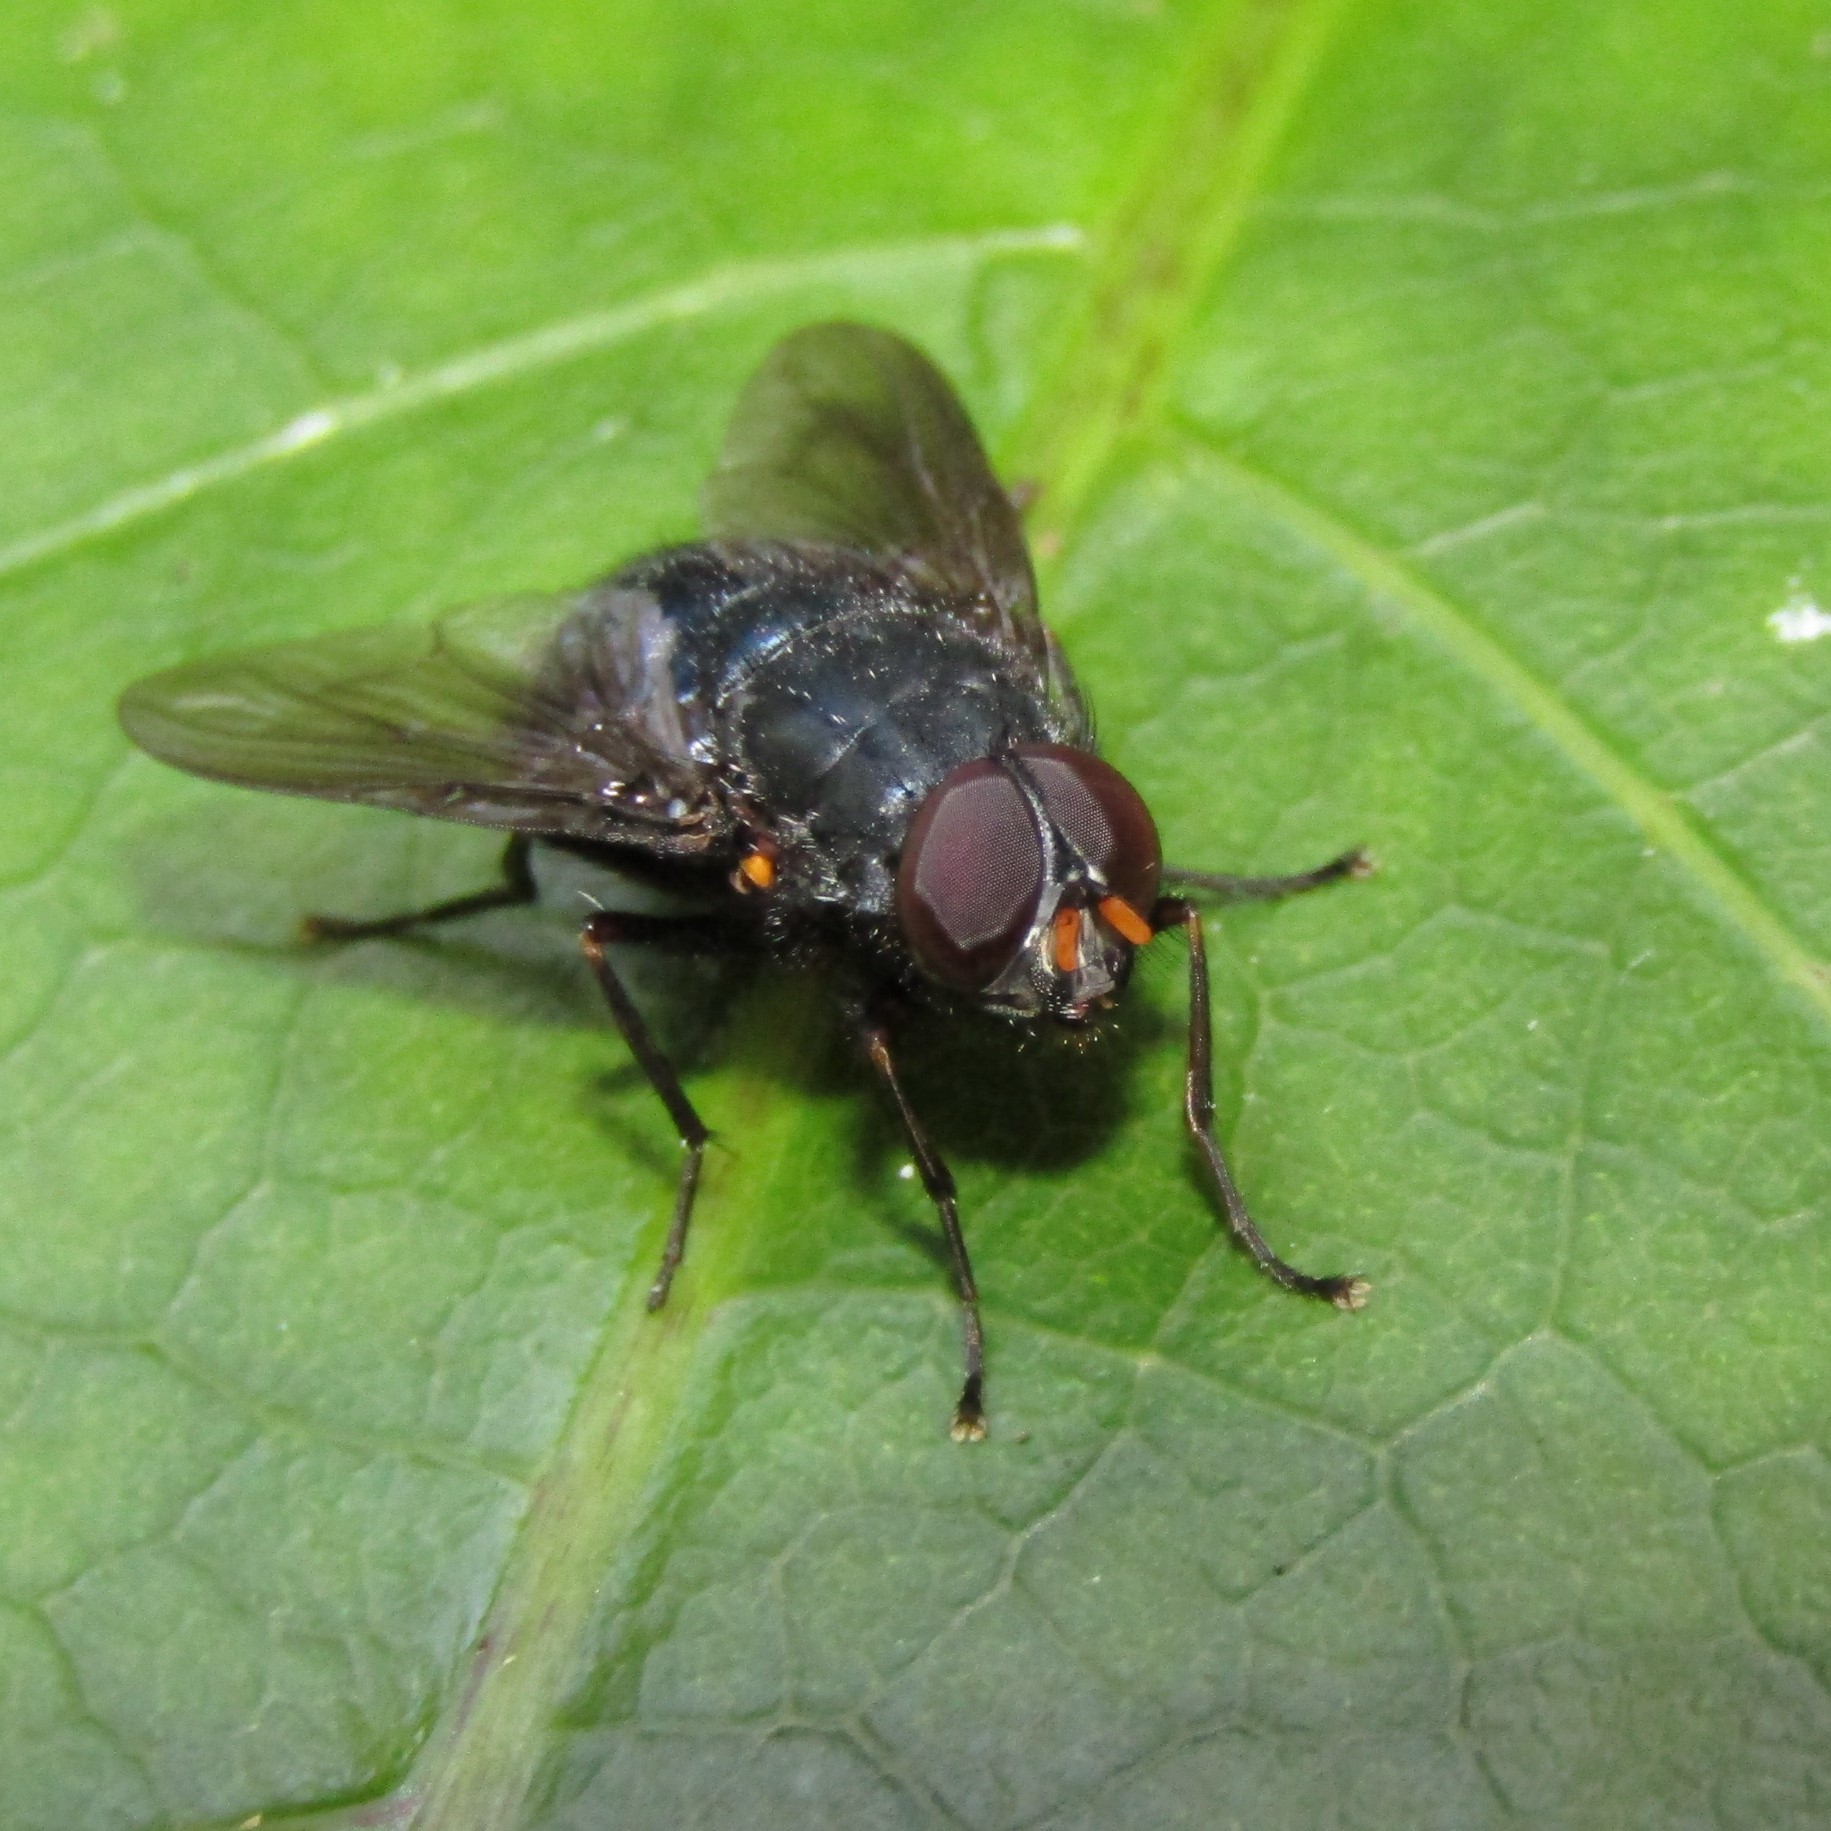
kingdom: Animalia
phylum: Arthropoda
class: Insecta
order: Diptera
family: Muscidae
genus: Calliphoroides
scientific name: Calliphoroides antennatis
